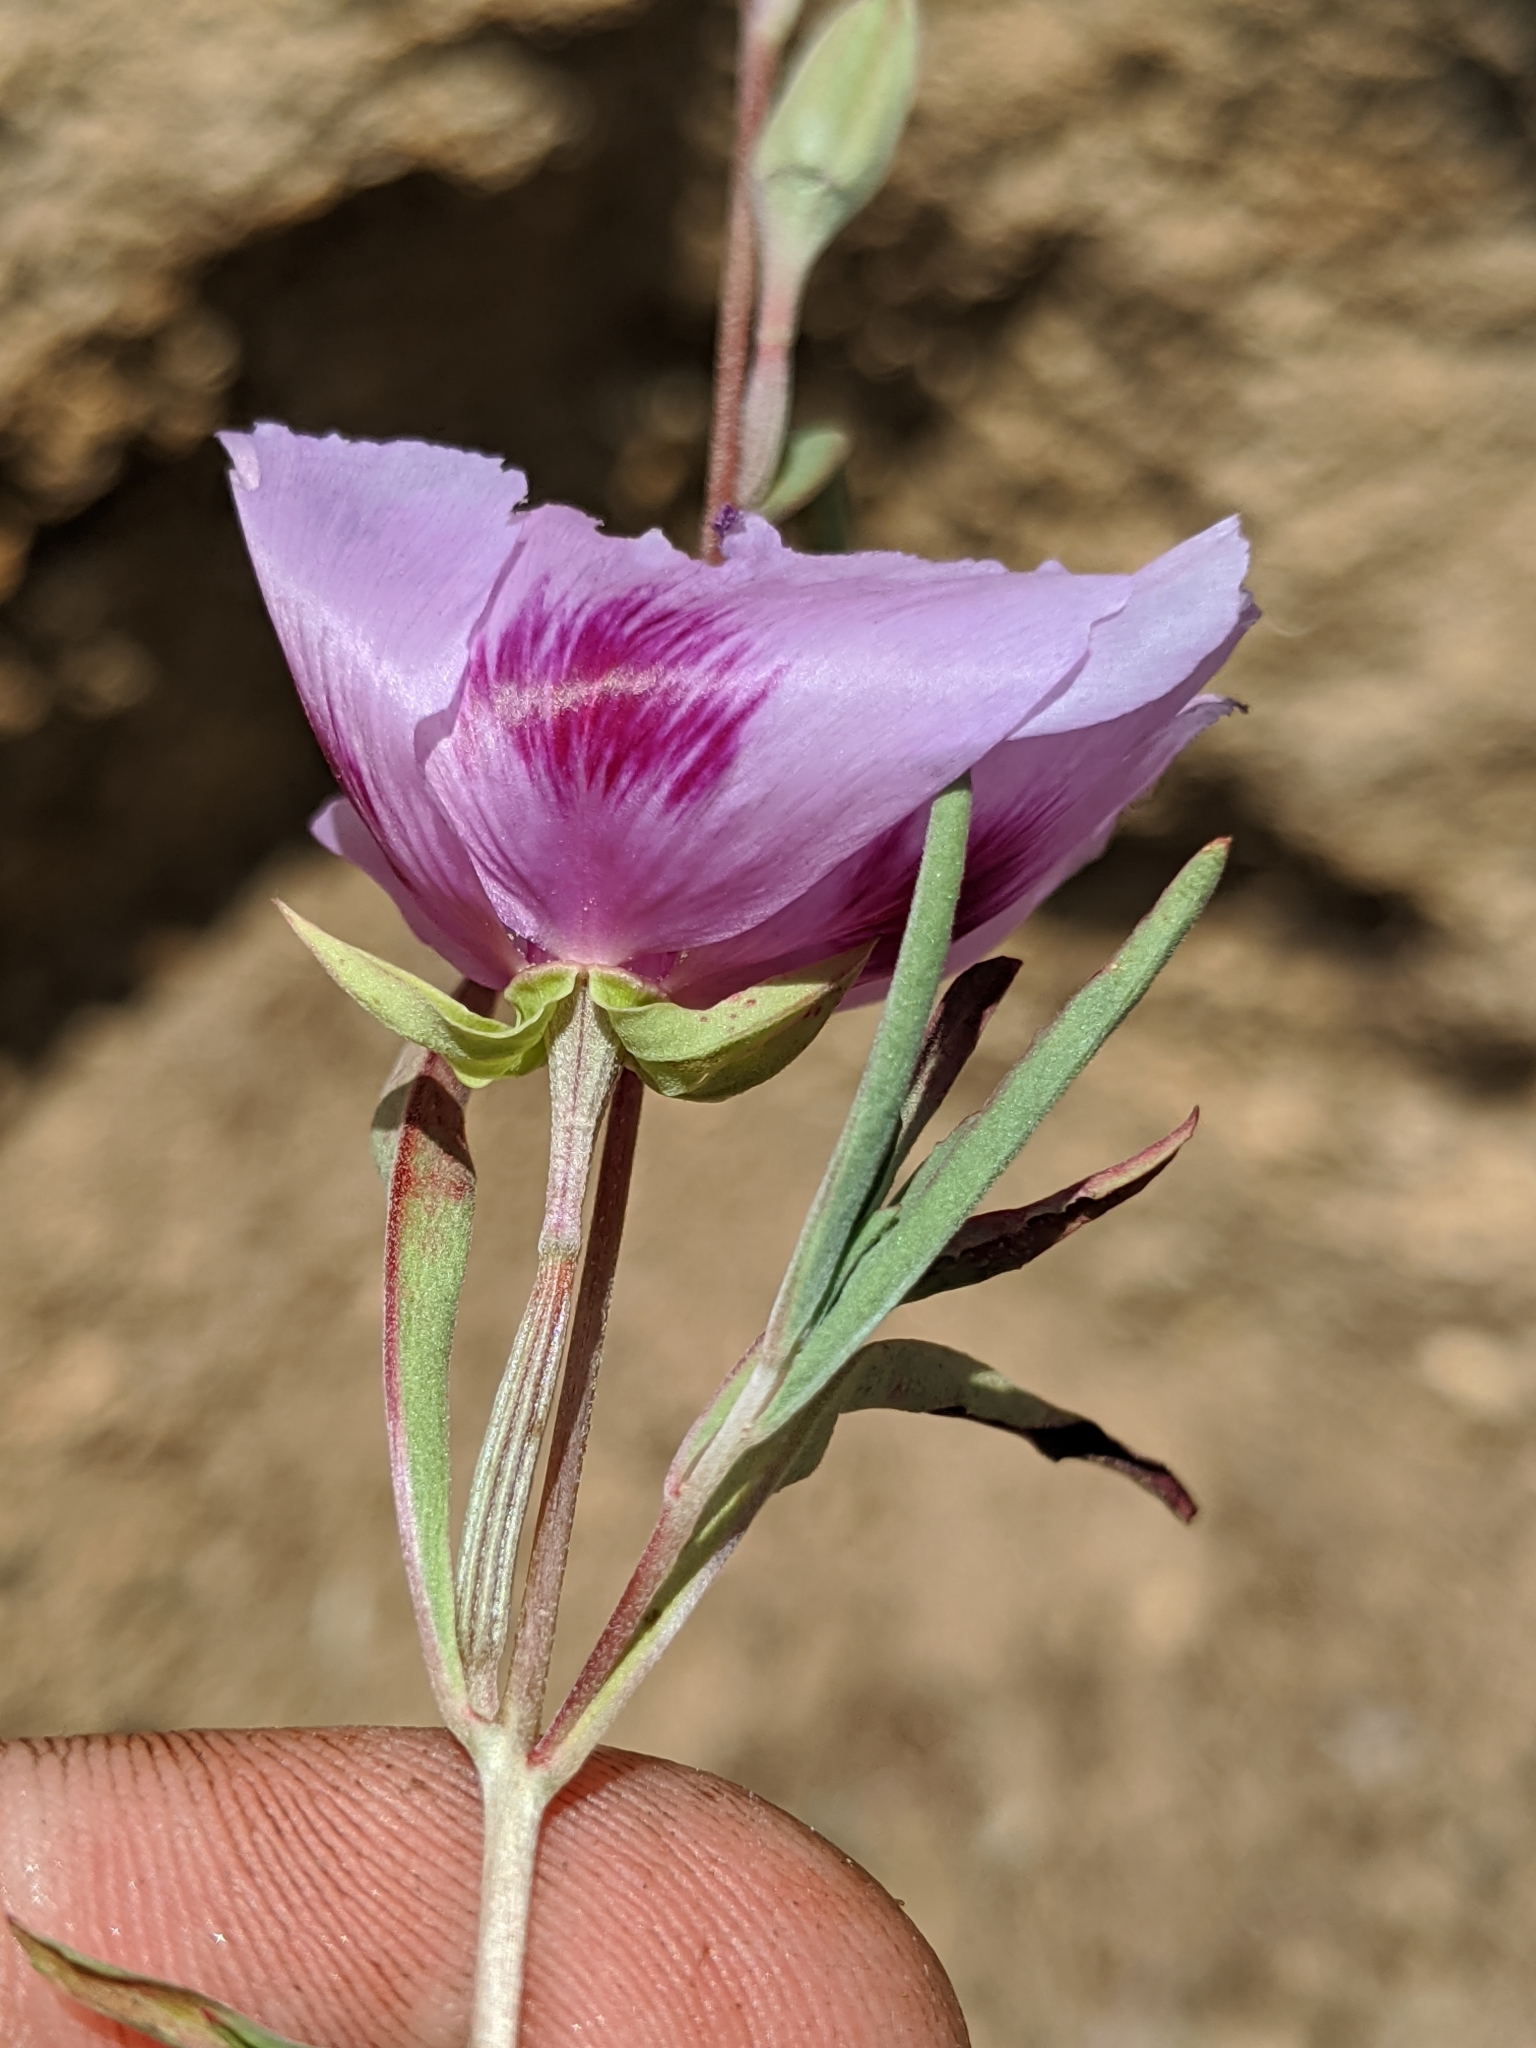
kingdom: Plantae
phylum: Tracheophyta
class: Magnoliopsida
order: Myrtales
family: Onagraceae
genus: Clarkia
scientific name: Clarkia amoena
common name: Godetia
